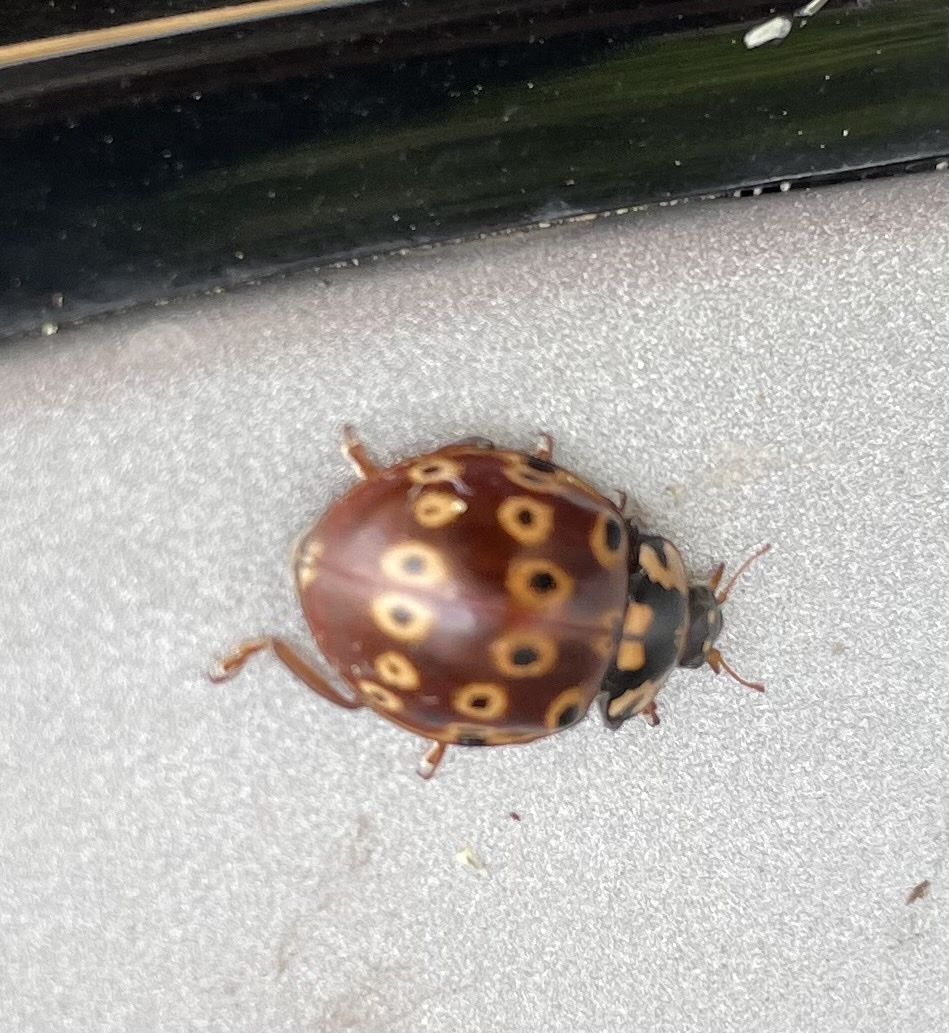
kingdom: Animalia
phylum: Arthropoda
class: Insecta
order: Coleoptera
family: Coccinellidae
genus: Anatis
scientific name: Anatis mali
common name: Eye-spotted lady beetle
